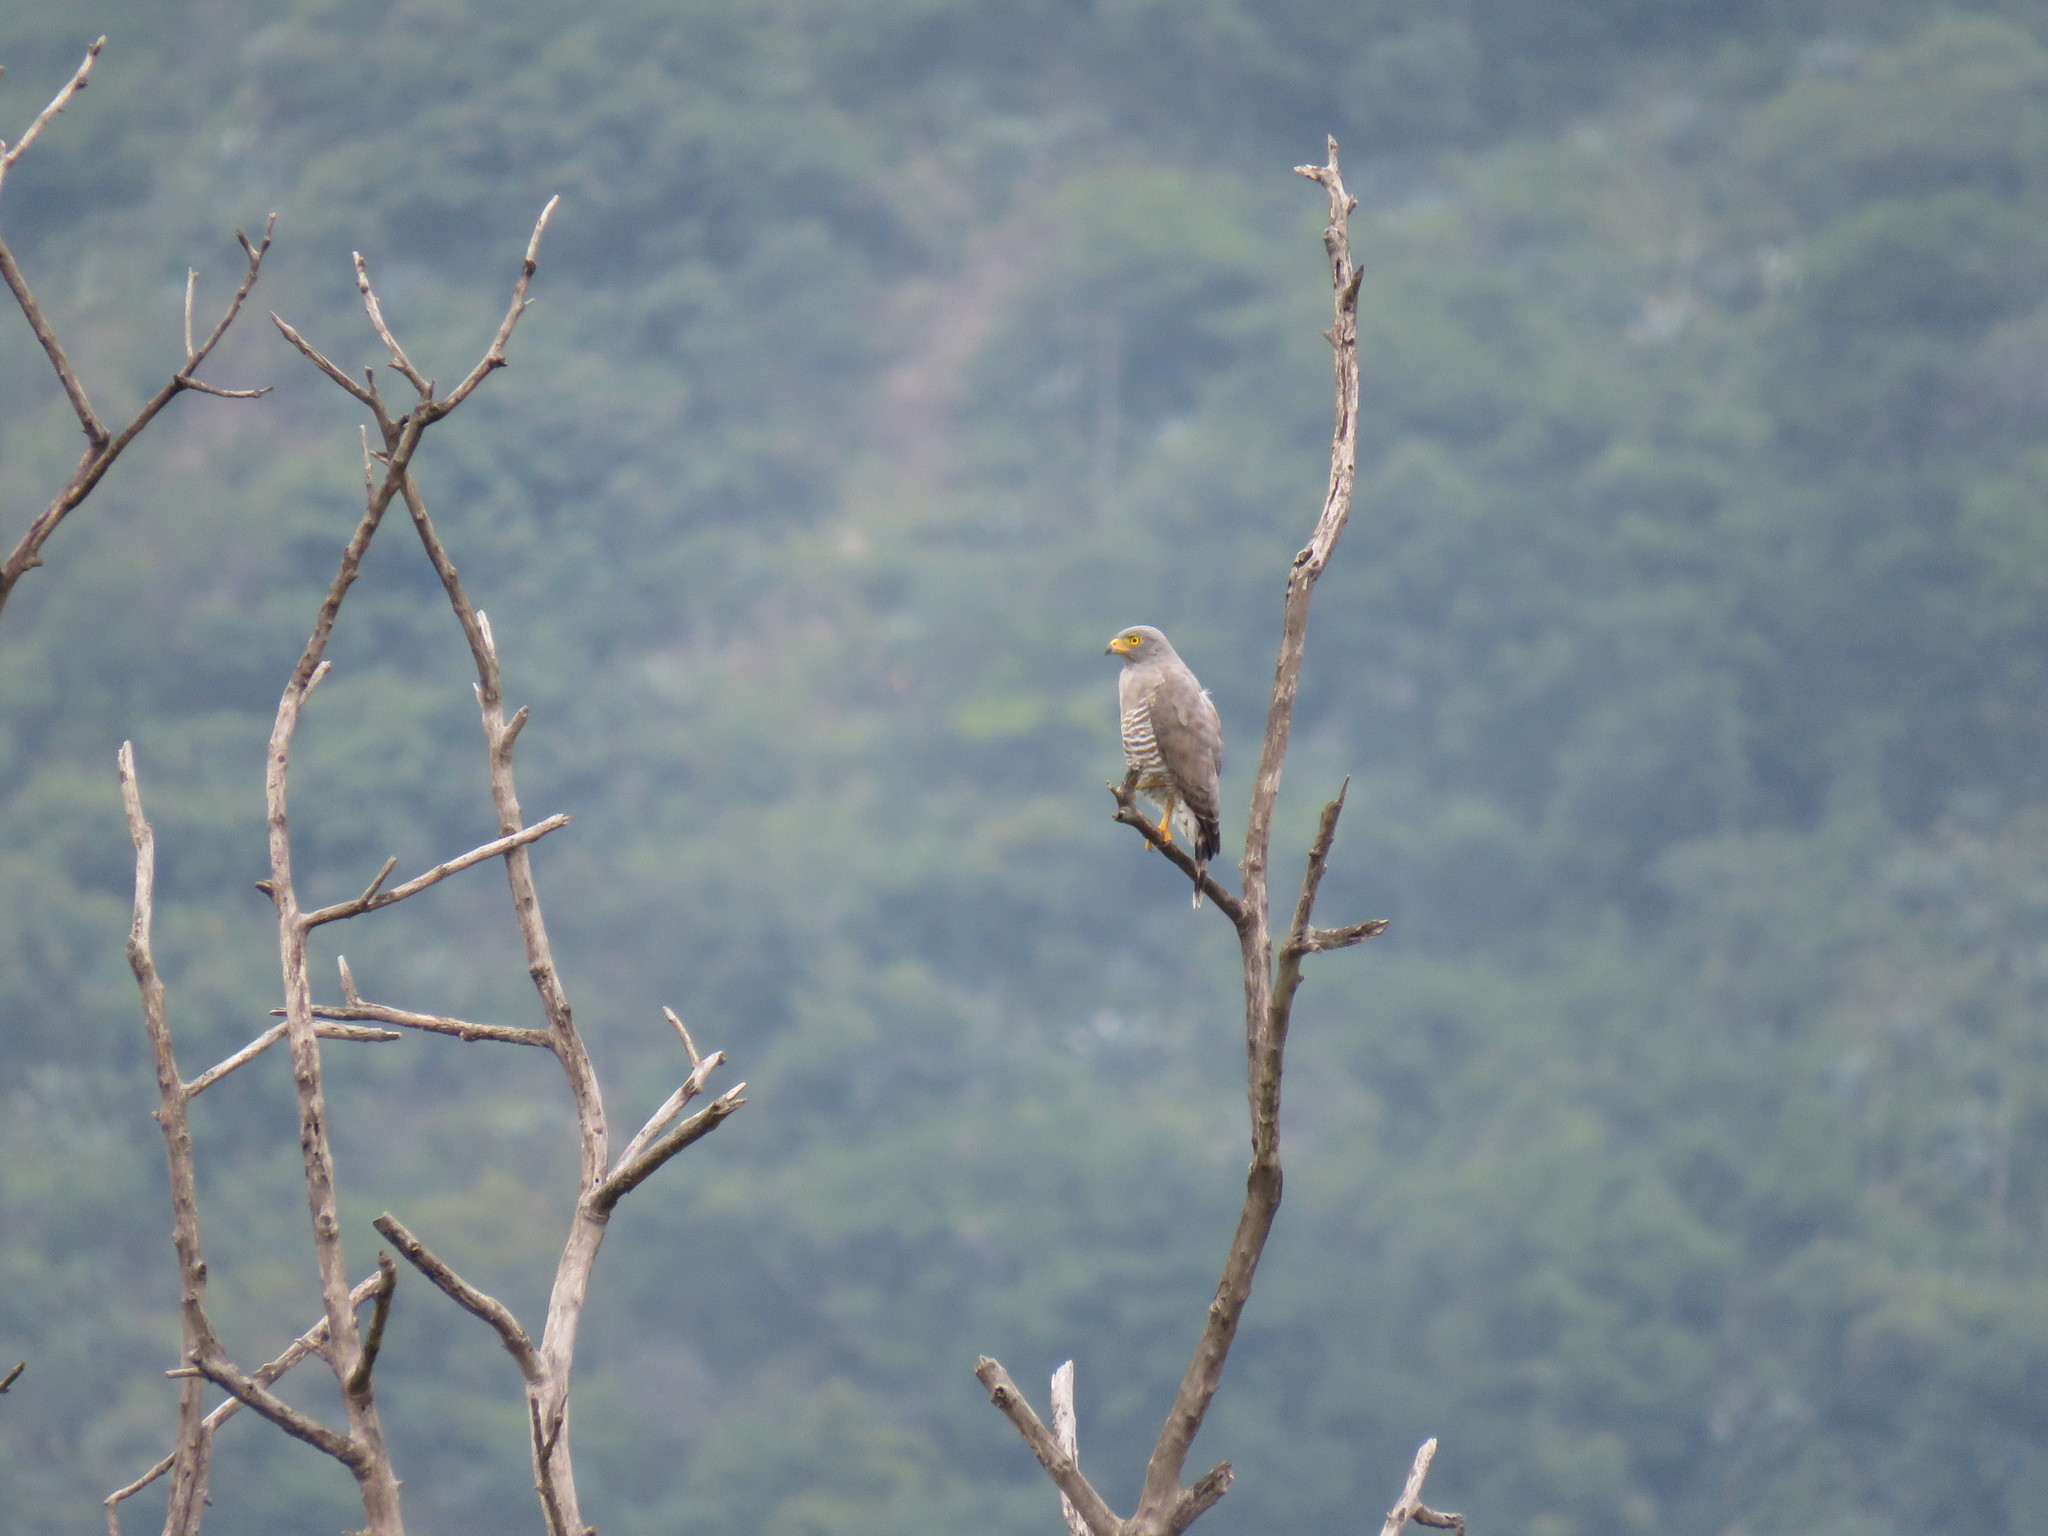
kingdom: Animalia
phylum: Chordata
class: Aves
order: Accipitriformes
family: Accipitridae
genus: Rupornis
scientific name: Rupornis magnirostris
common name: Roadside hawk
